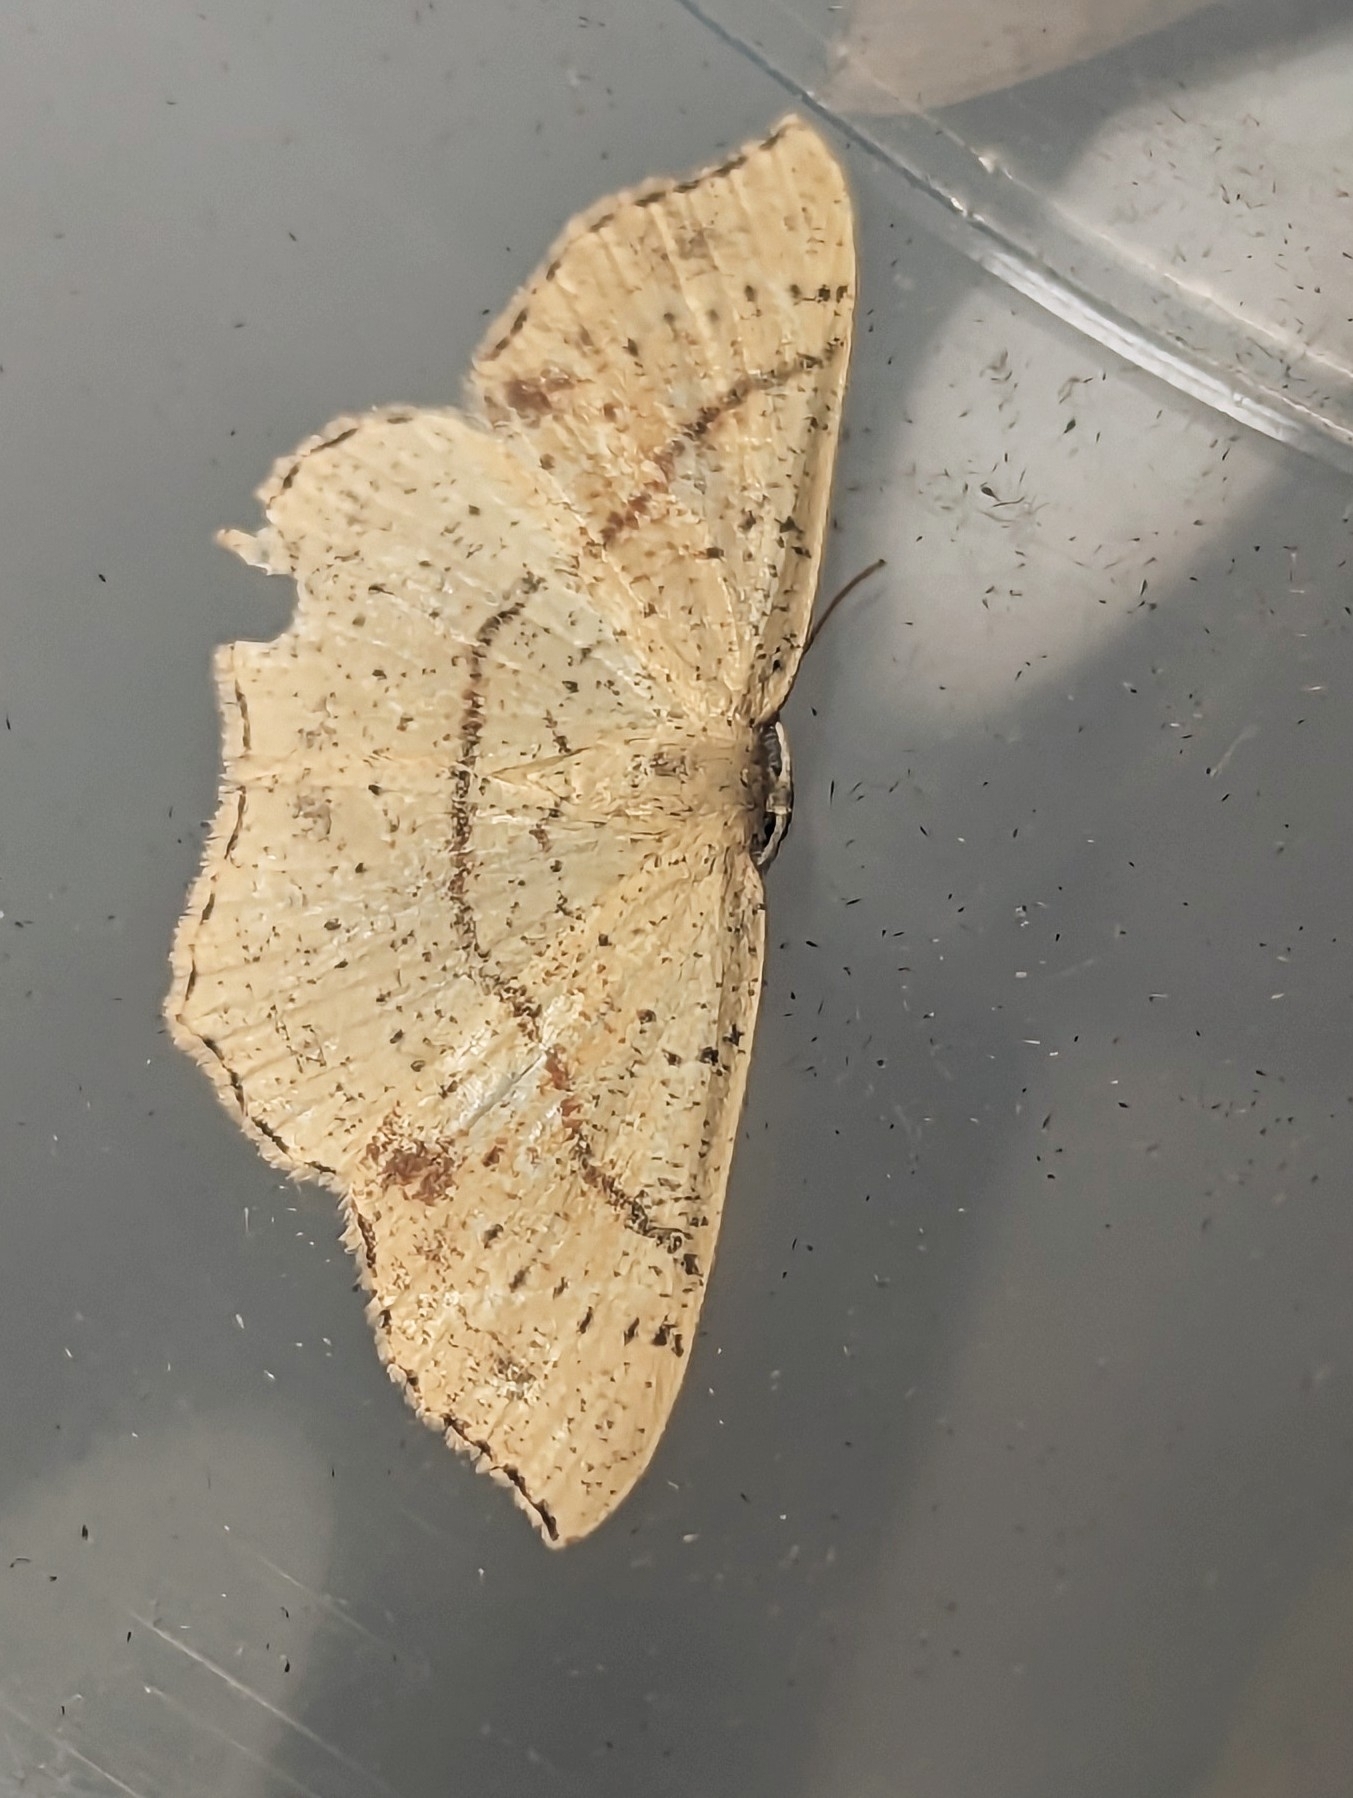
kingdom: Animalia
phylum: Arthropoda
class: Insecta
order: Lepidoptera
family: Geometridae
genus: Cyclophora
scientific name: Cyclophora punctaria
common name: Maiden's blush
